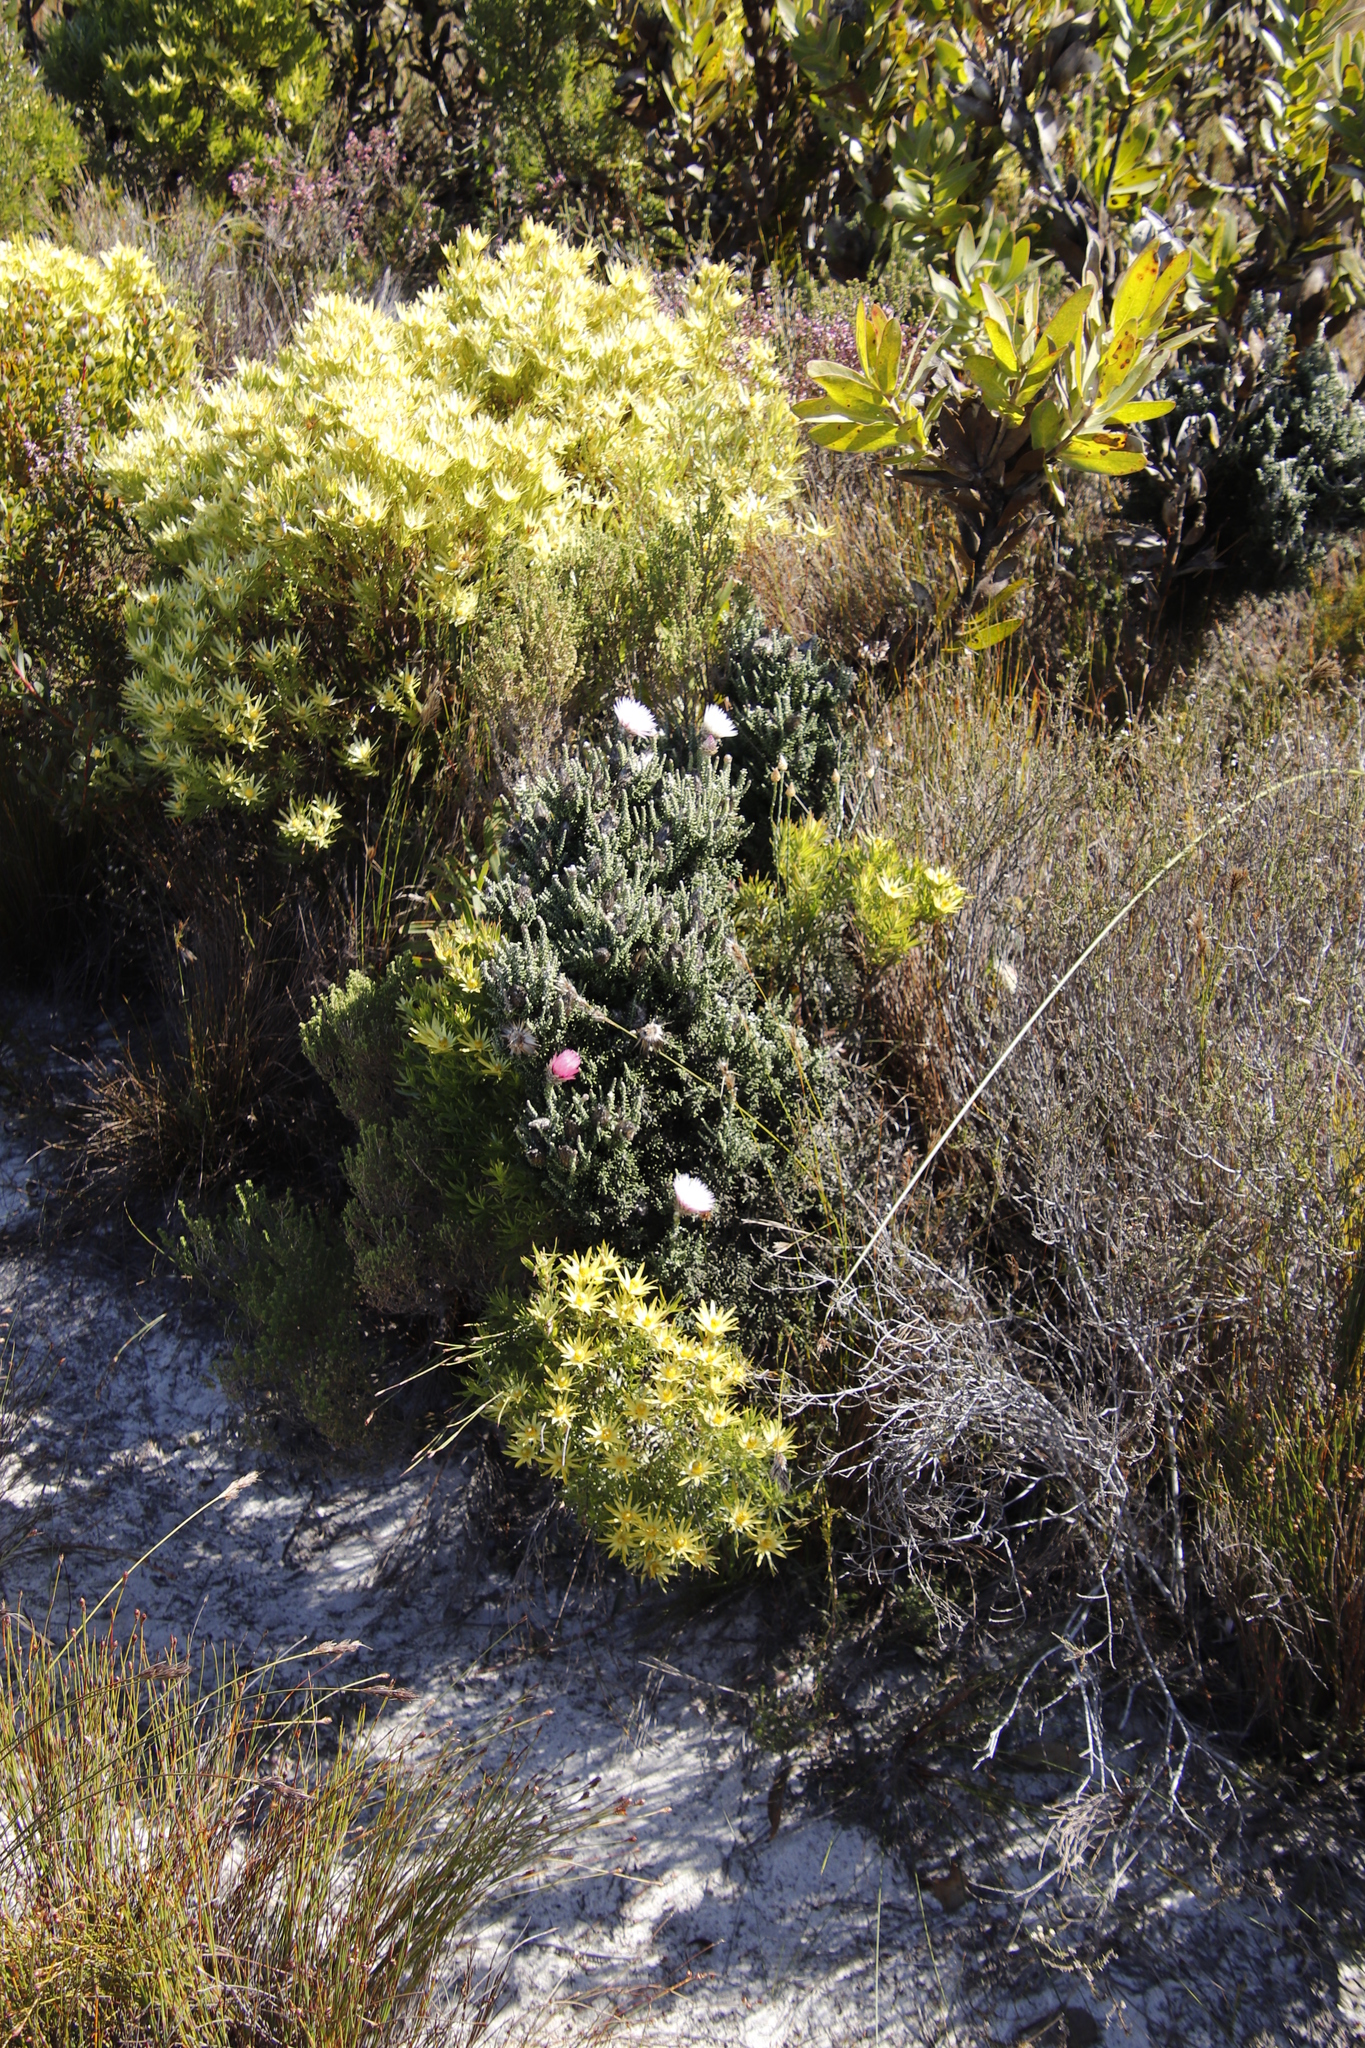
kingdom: Plantae
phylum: Tracheophyta
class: Magnoliopsida
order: Asterales
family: Asteraceae
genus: Phaenocoma
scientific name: Phaenocoma prolifera
